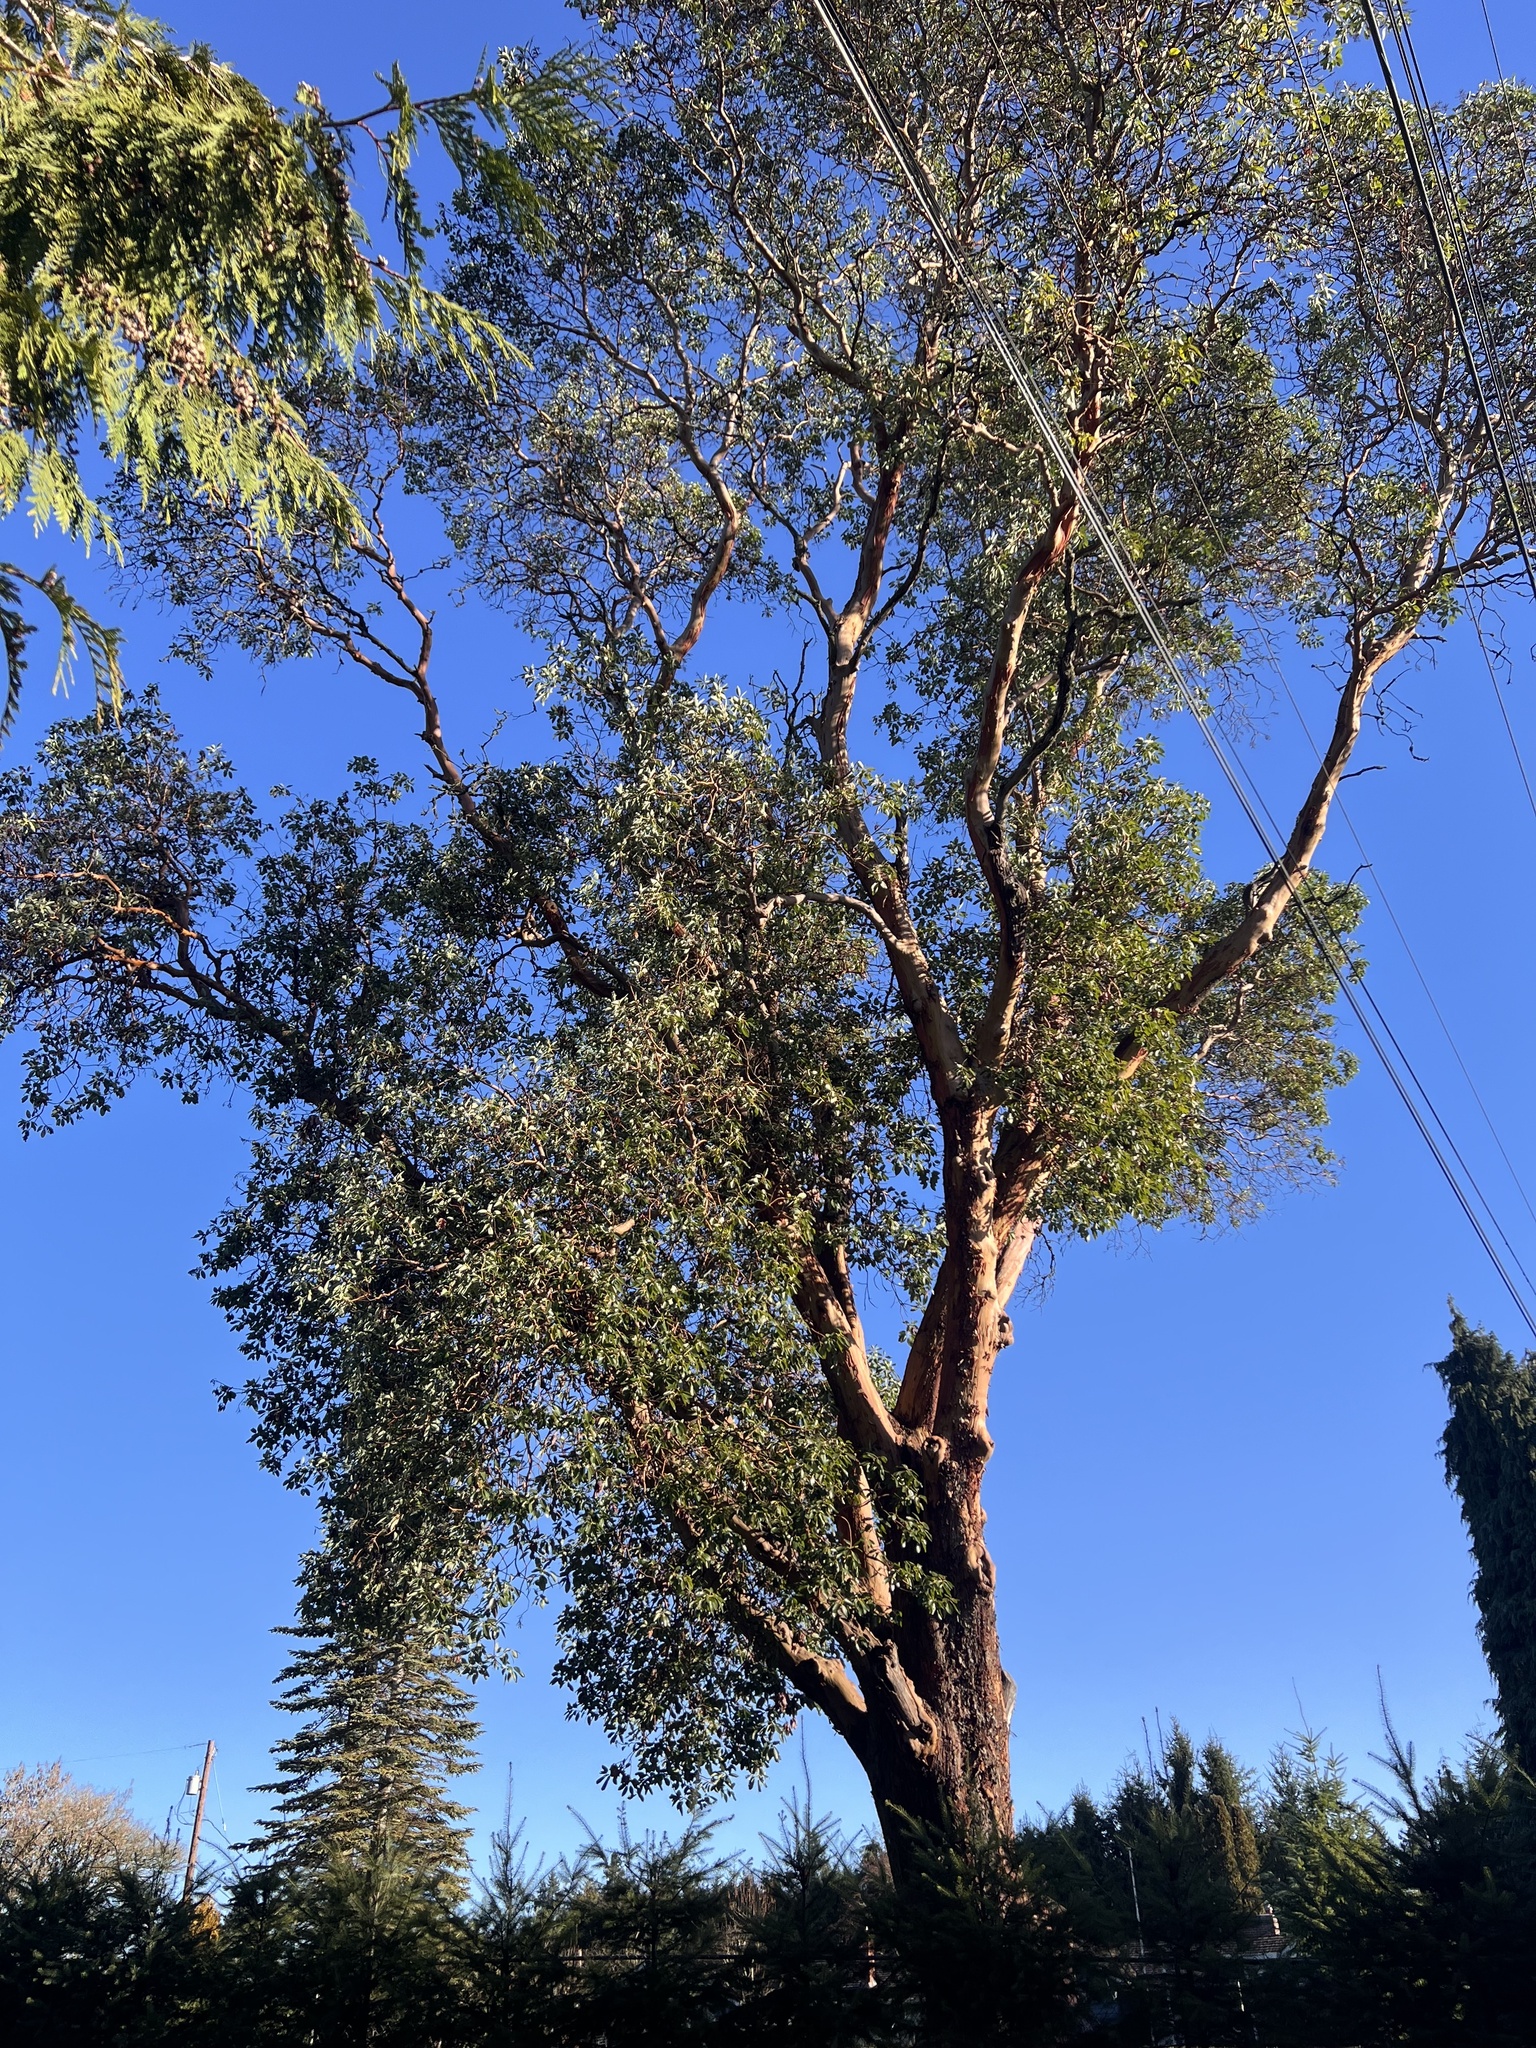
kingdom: Plantae
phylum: Tracheophyta
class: Magnoliopsida
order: Ericales
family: Ericaceae
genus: Arbutus
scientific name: Arbutus menziesii
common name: Pacific madrone
